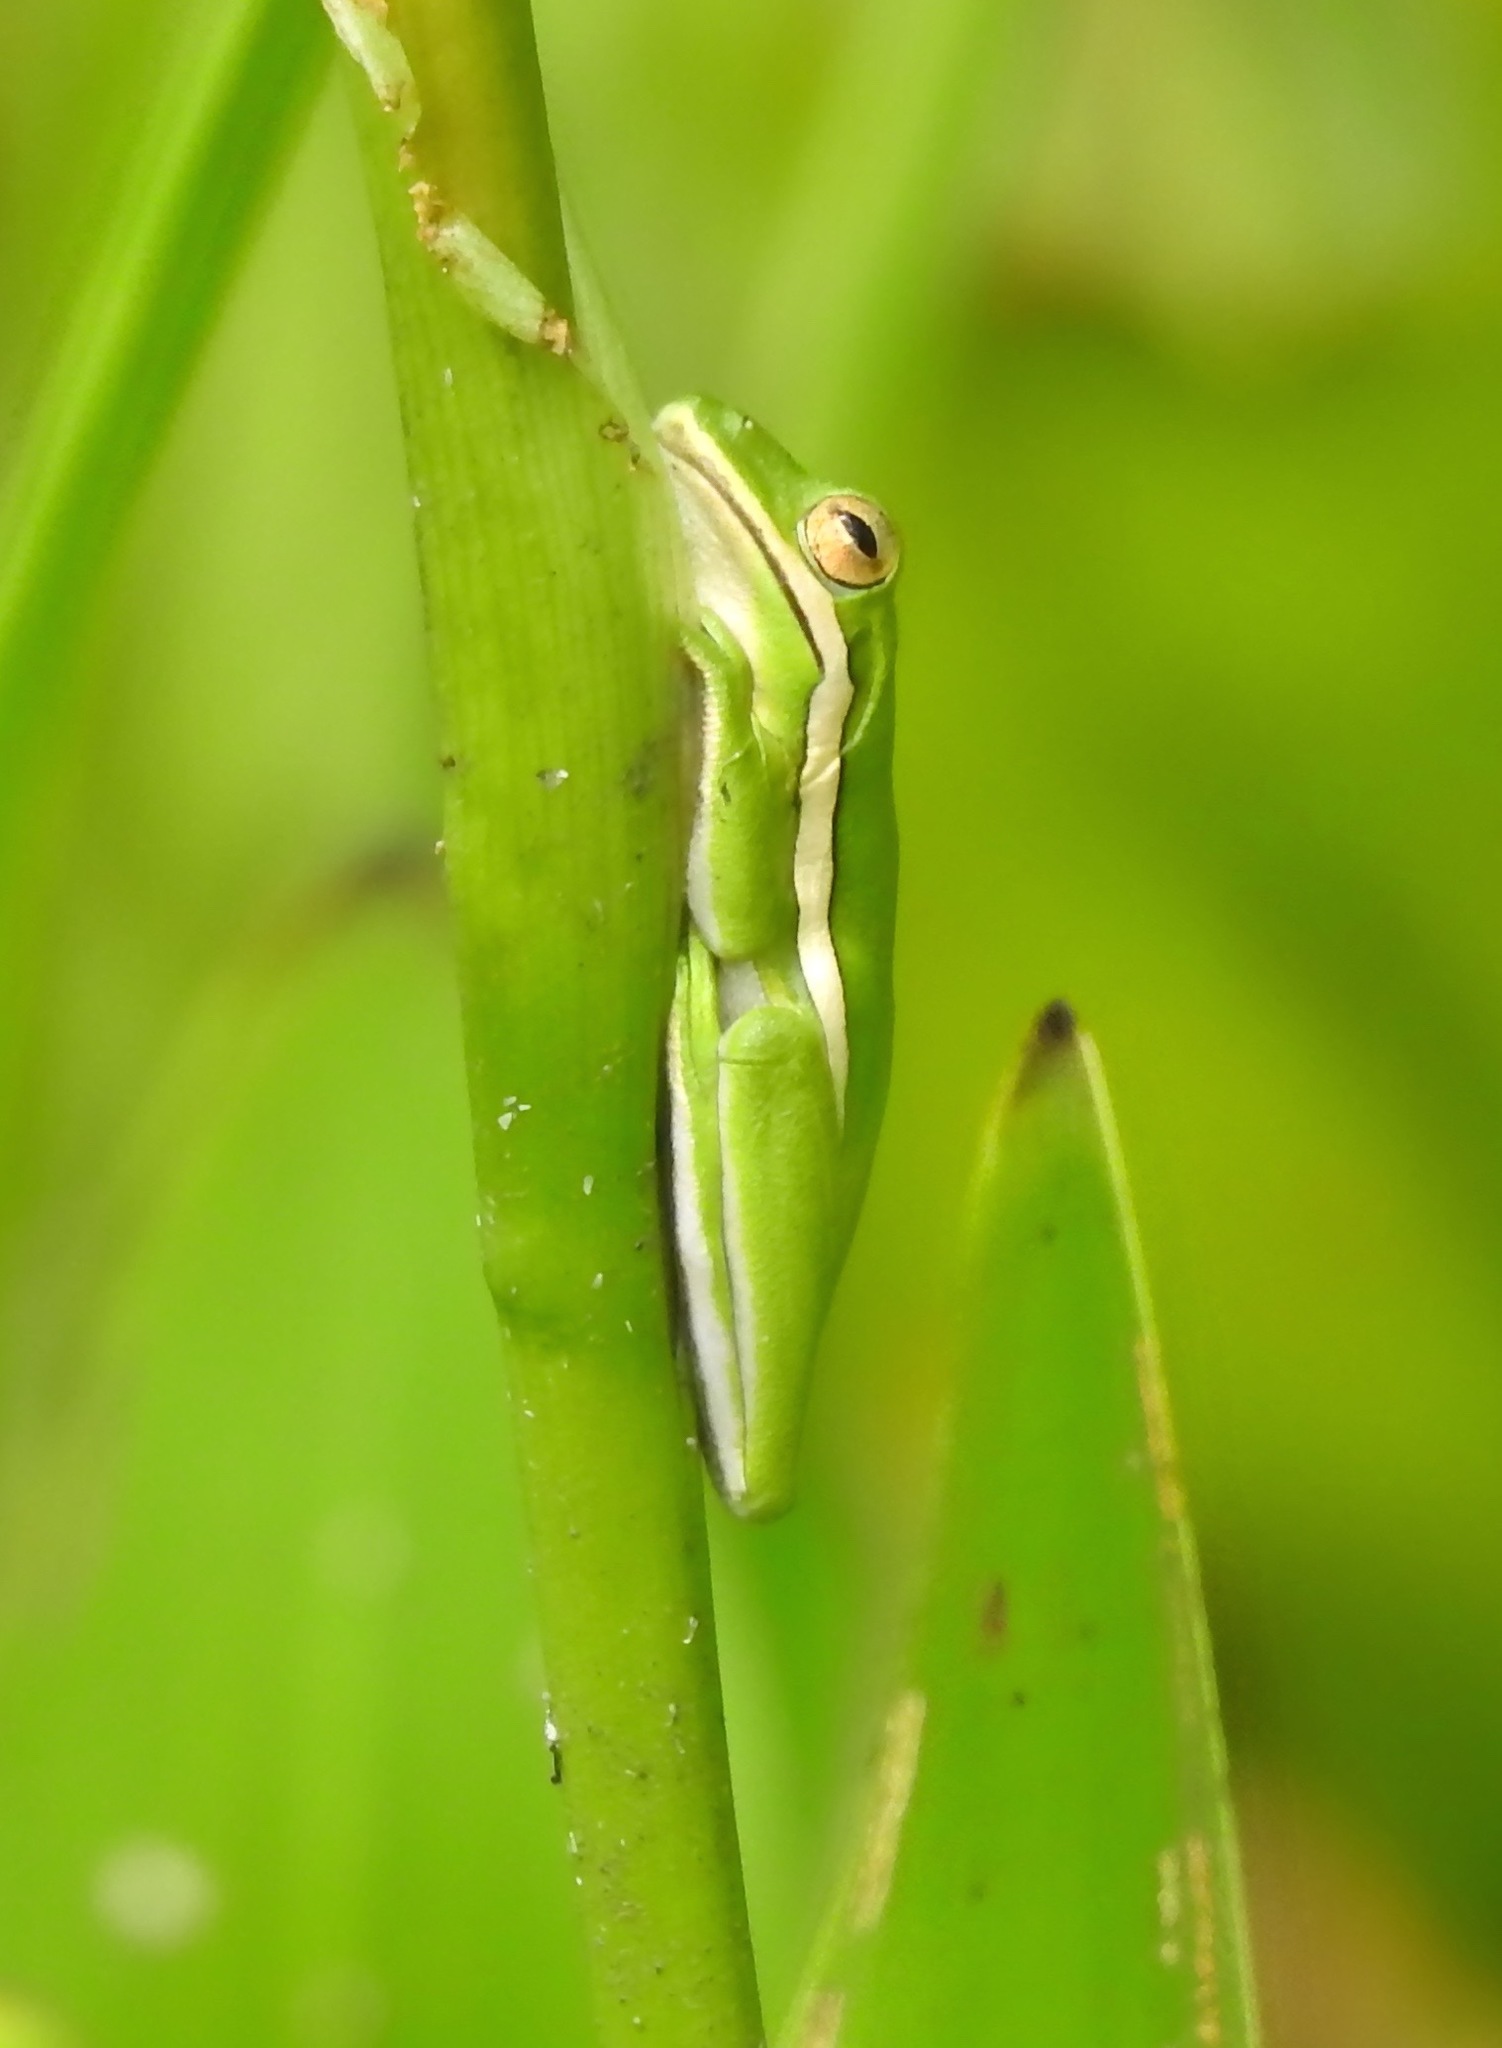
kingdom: Animalia
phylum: Chordata
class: Amphibia
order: Anura
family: Hylidae
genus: Dryophytes
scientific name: Dryophytes cinereus
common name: Green treefrog
